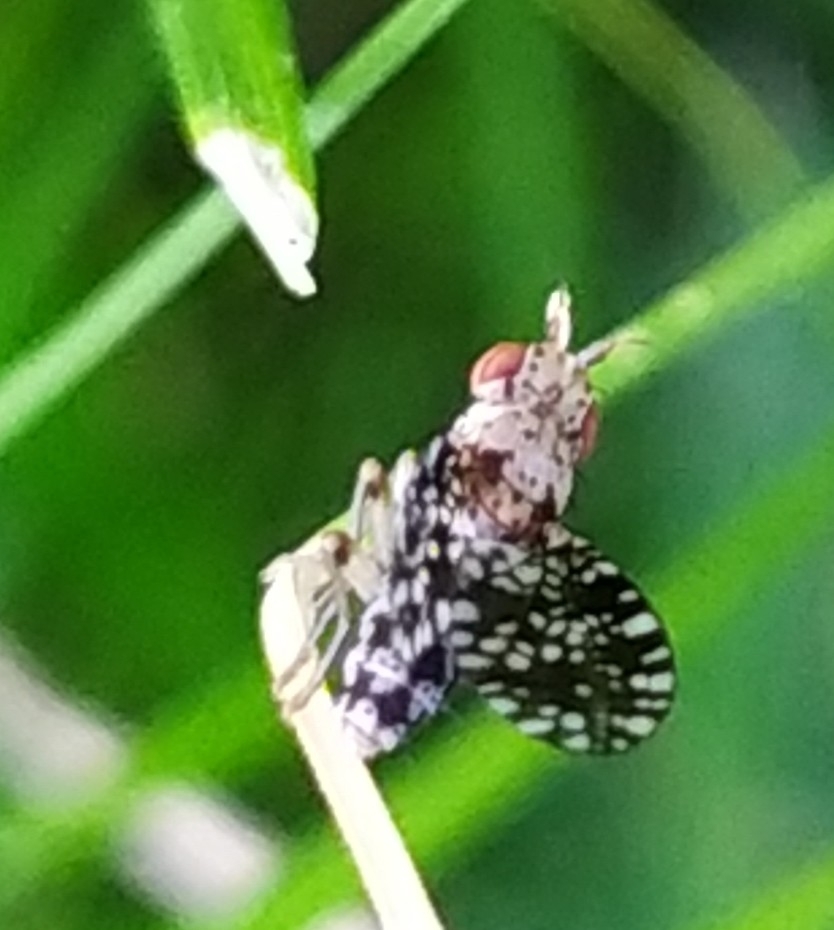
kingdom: Animalia
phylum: Arthropoda
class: Insecta
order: Diptera
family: Sciomyzidae
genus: Trypetoptera
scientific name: Trypetoptera punctulata
